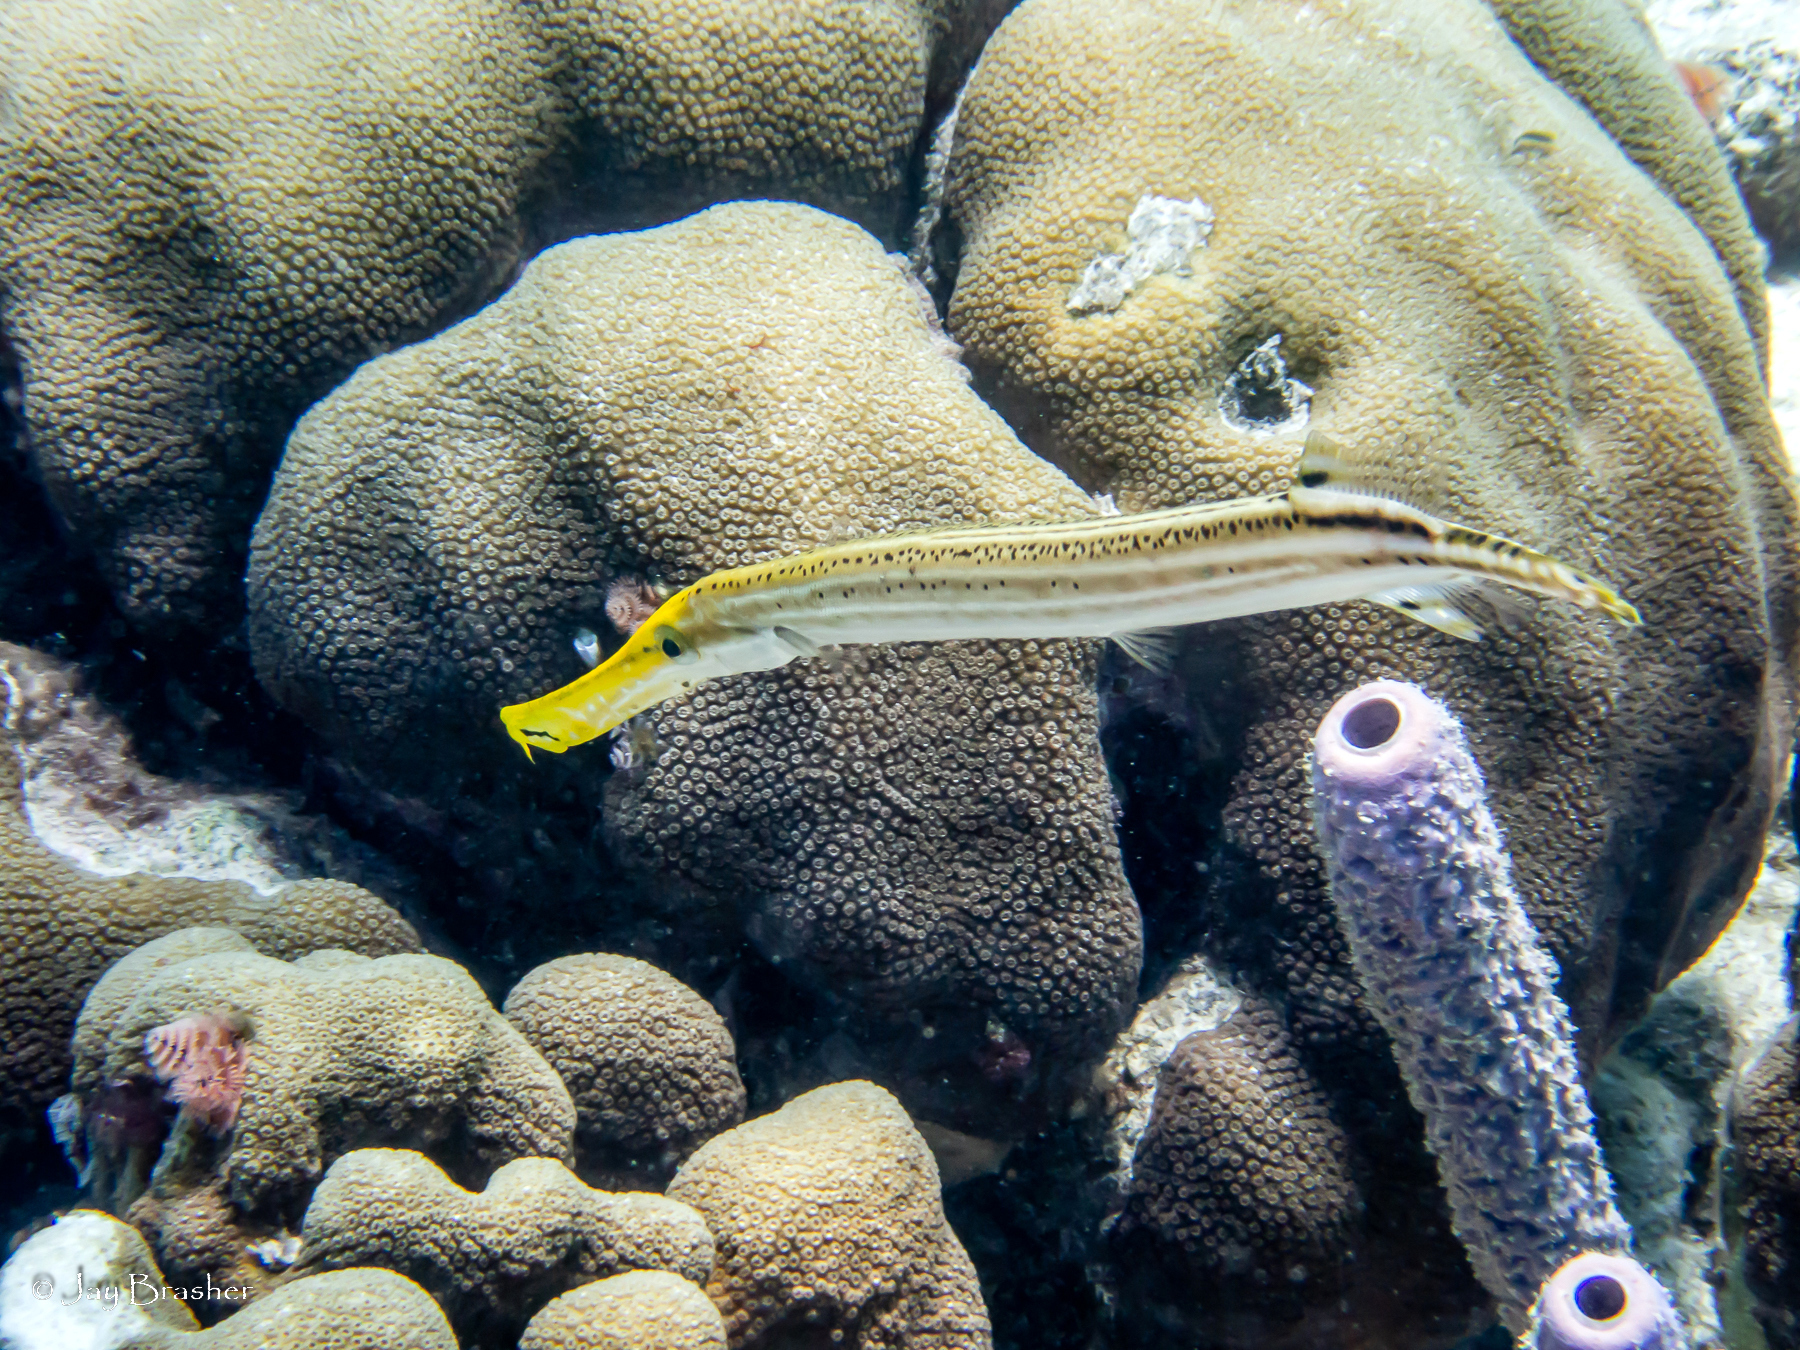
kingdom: Animalia
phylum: Porifera
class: Demospongiae
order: Verongiida
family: Aplysinidae
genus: Aplysina
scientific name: Aplysina archeri
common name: Stove-pipe sponge
